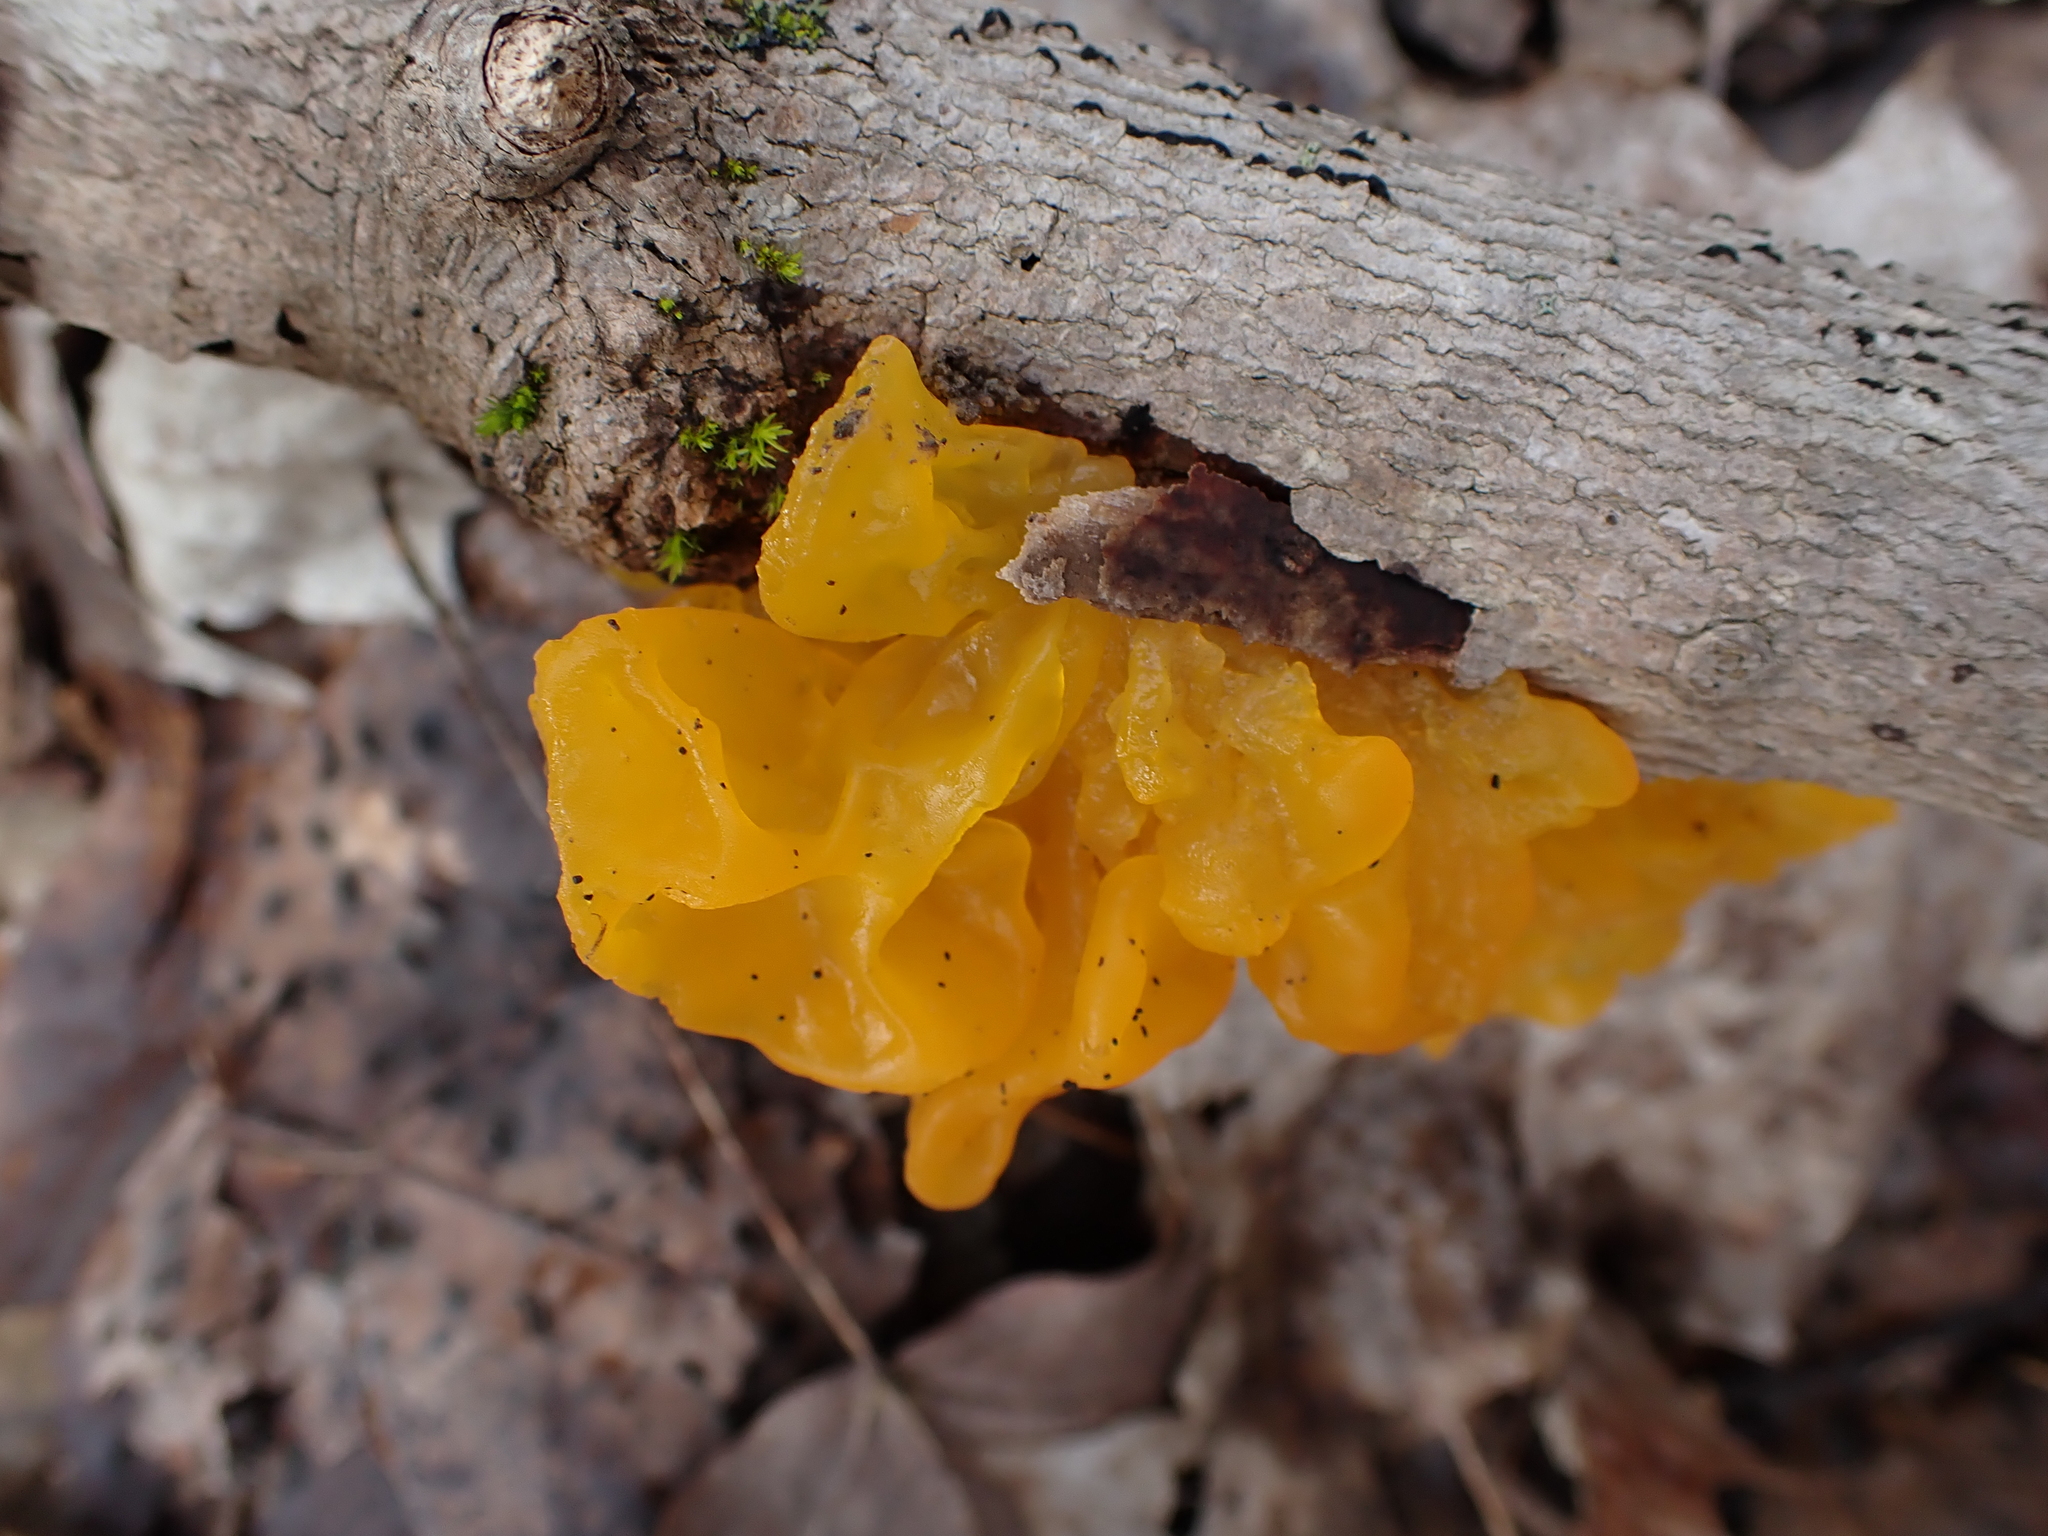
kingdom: Fungi
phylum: Basidiomycota
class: Tremellomycetes
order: Tremellales
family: Tremellaceae
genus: Tremella
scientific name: Tremella mesenterica
